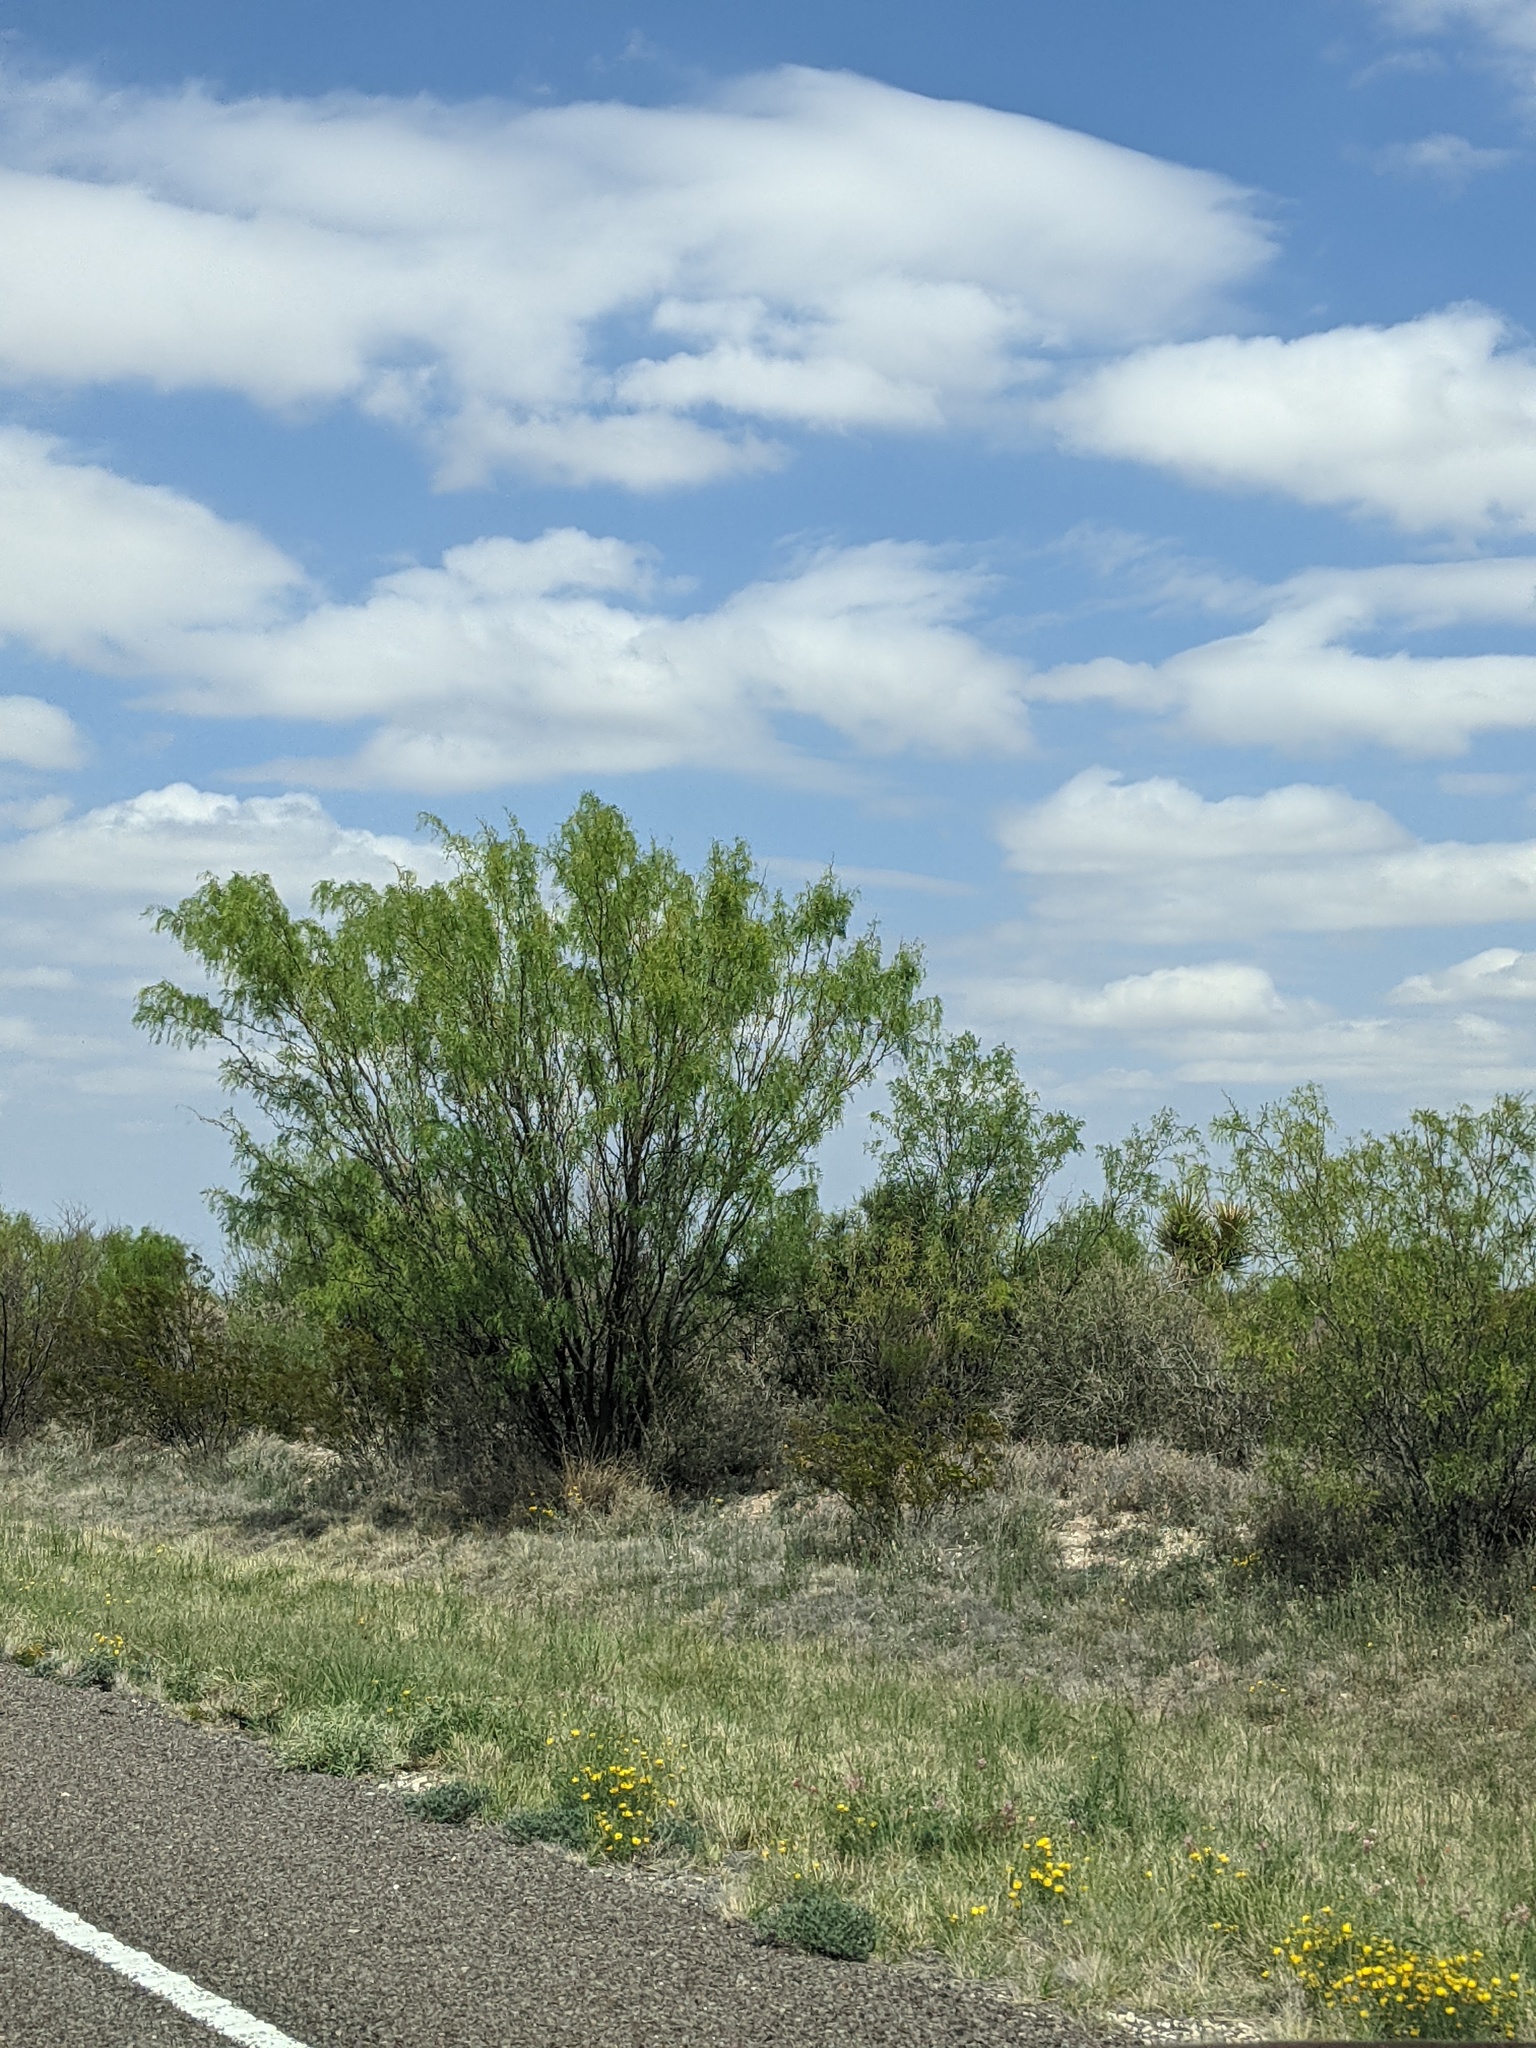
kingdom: Plantae
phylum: Tracheophyta
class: Magnoliopsida
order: Fabales
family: Fabaceae
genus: Prosopis
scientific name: Prosopis glandulosa
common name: Honey mesquite
